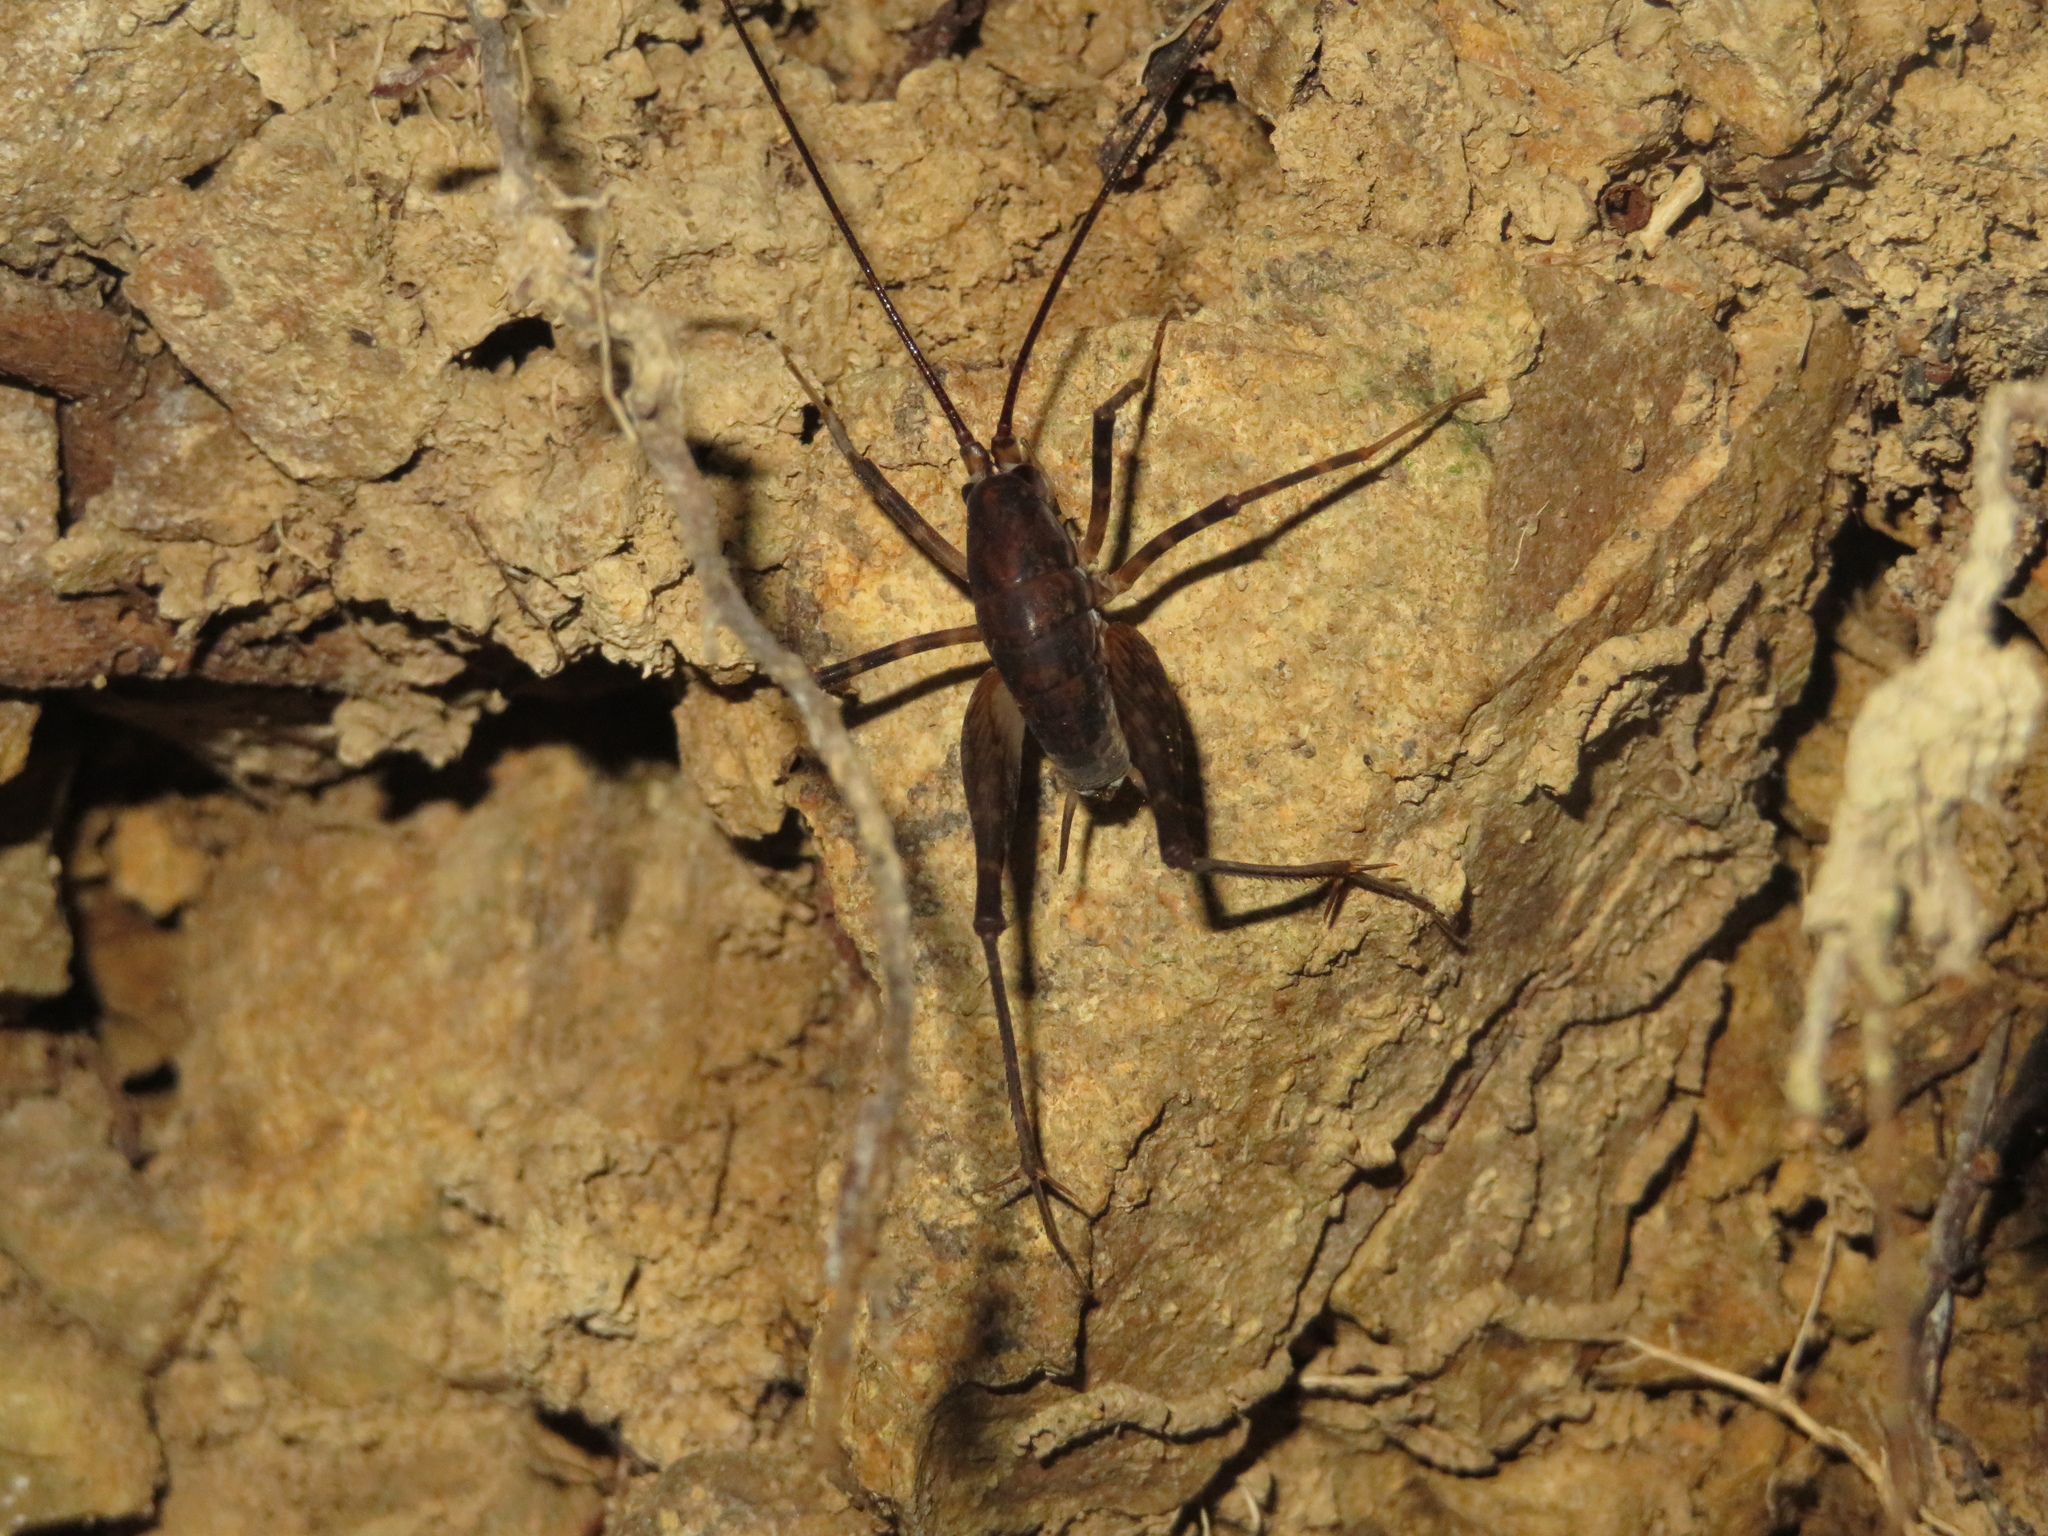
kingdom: Animalia
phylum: Arthropoda
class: Insecta
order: Orthoptera
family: Rhaphidophoridae
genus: Miotopus
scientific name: Miotopus diversus
